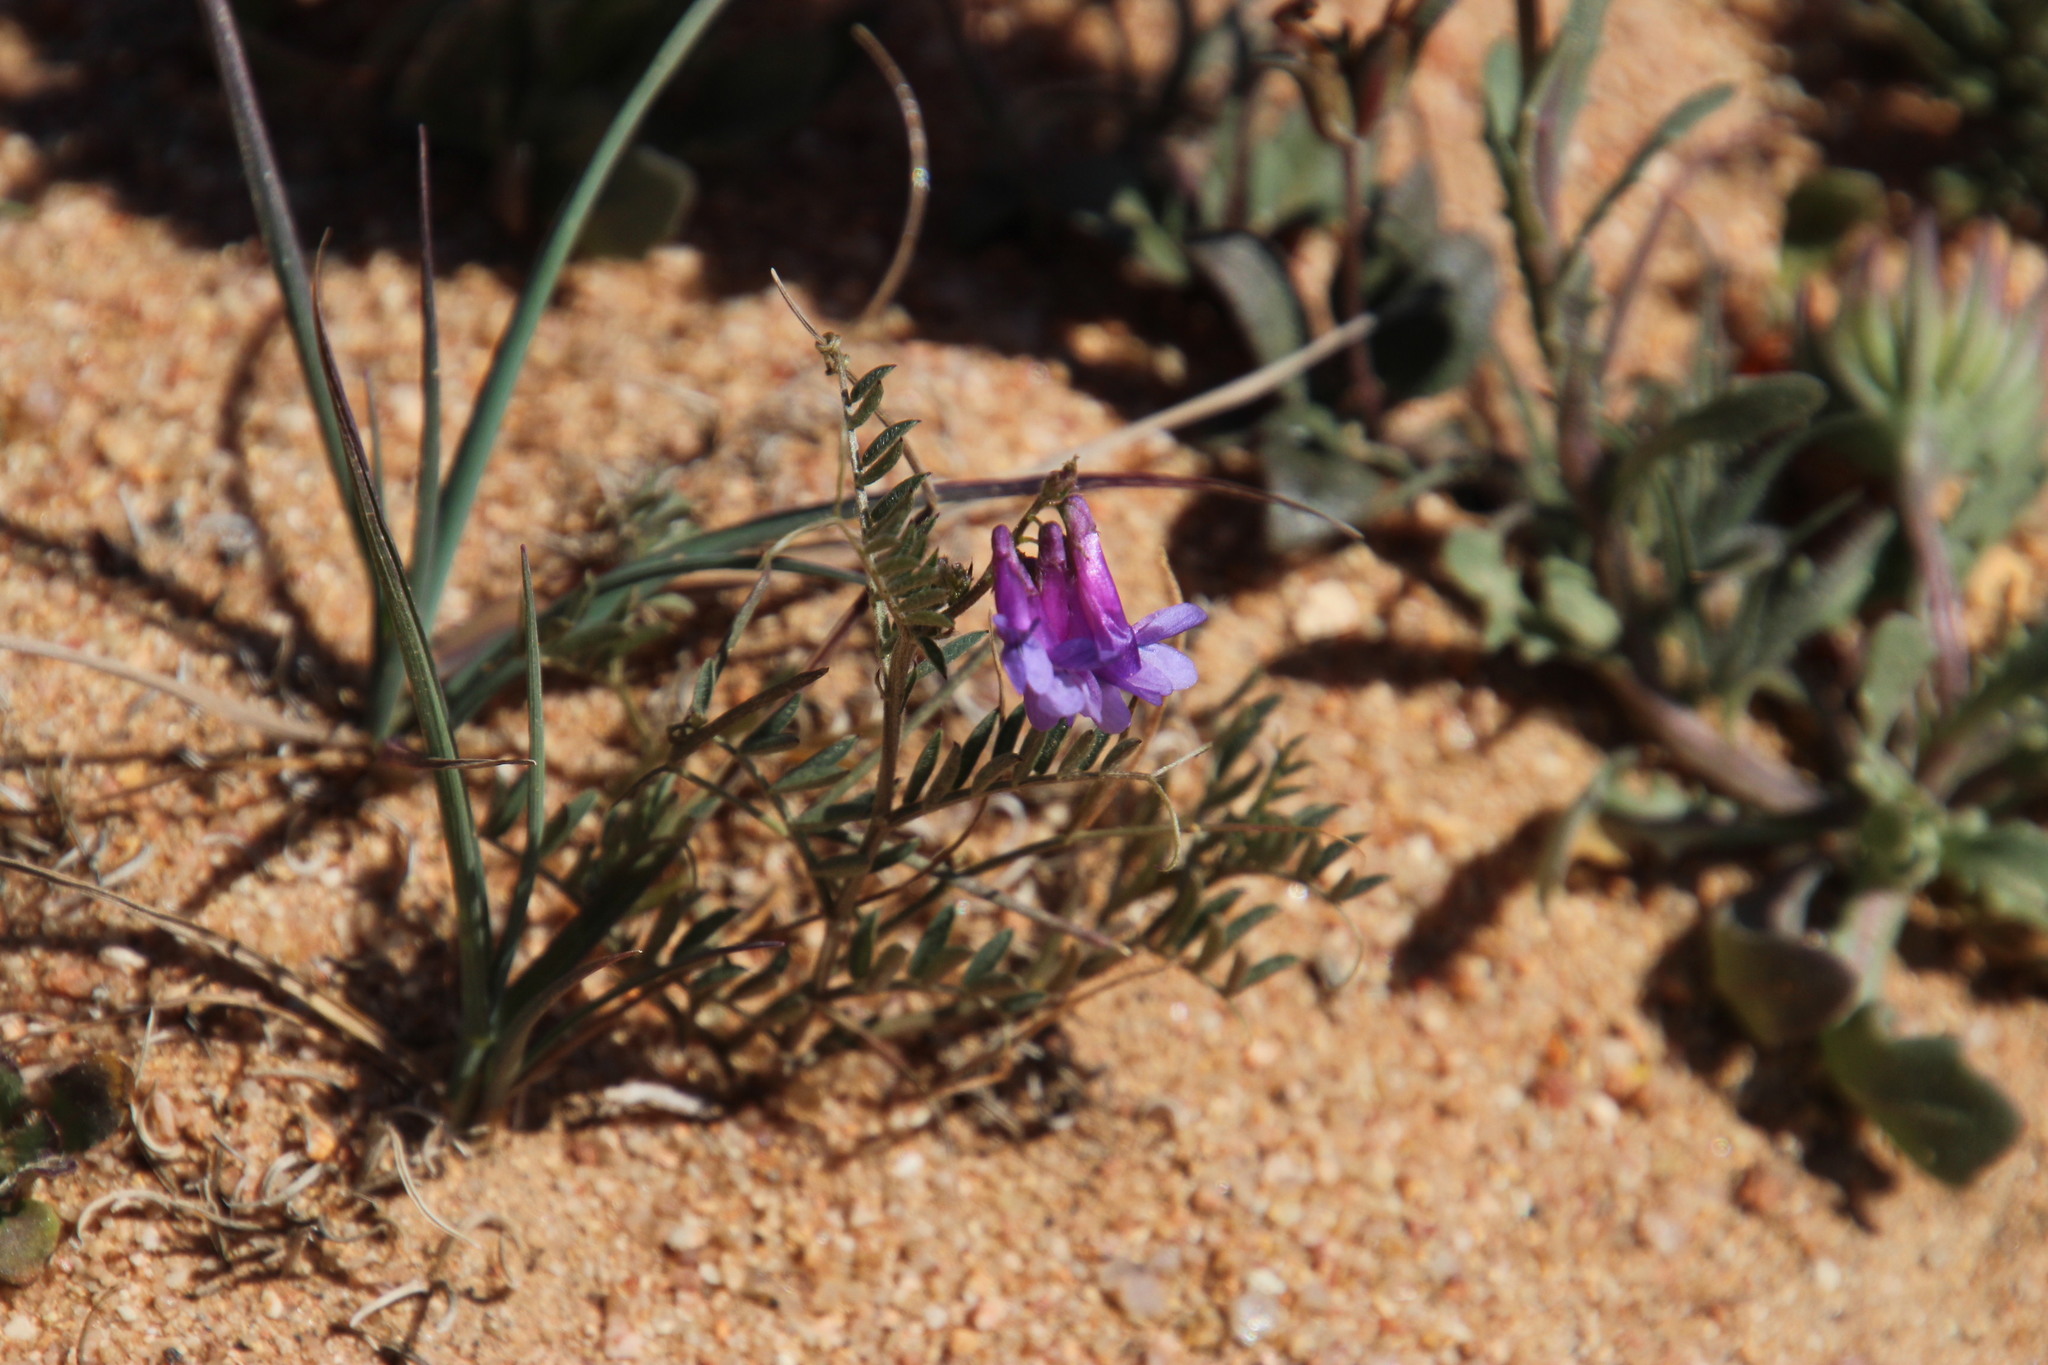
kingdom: Plantae
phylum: Tracheophyta
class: Magnoliopsida
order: Fabales
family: Fabaceae
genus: Vicia
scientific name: Vicia eriocarpa
